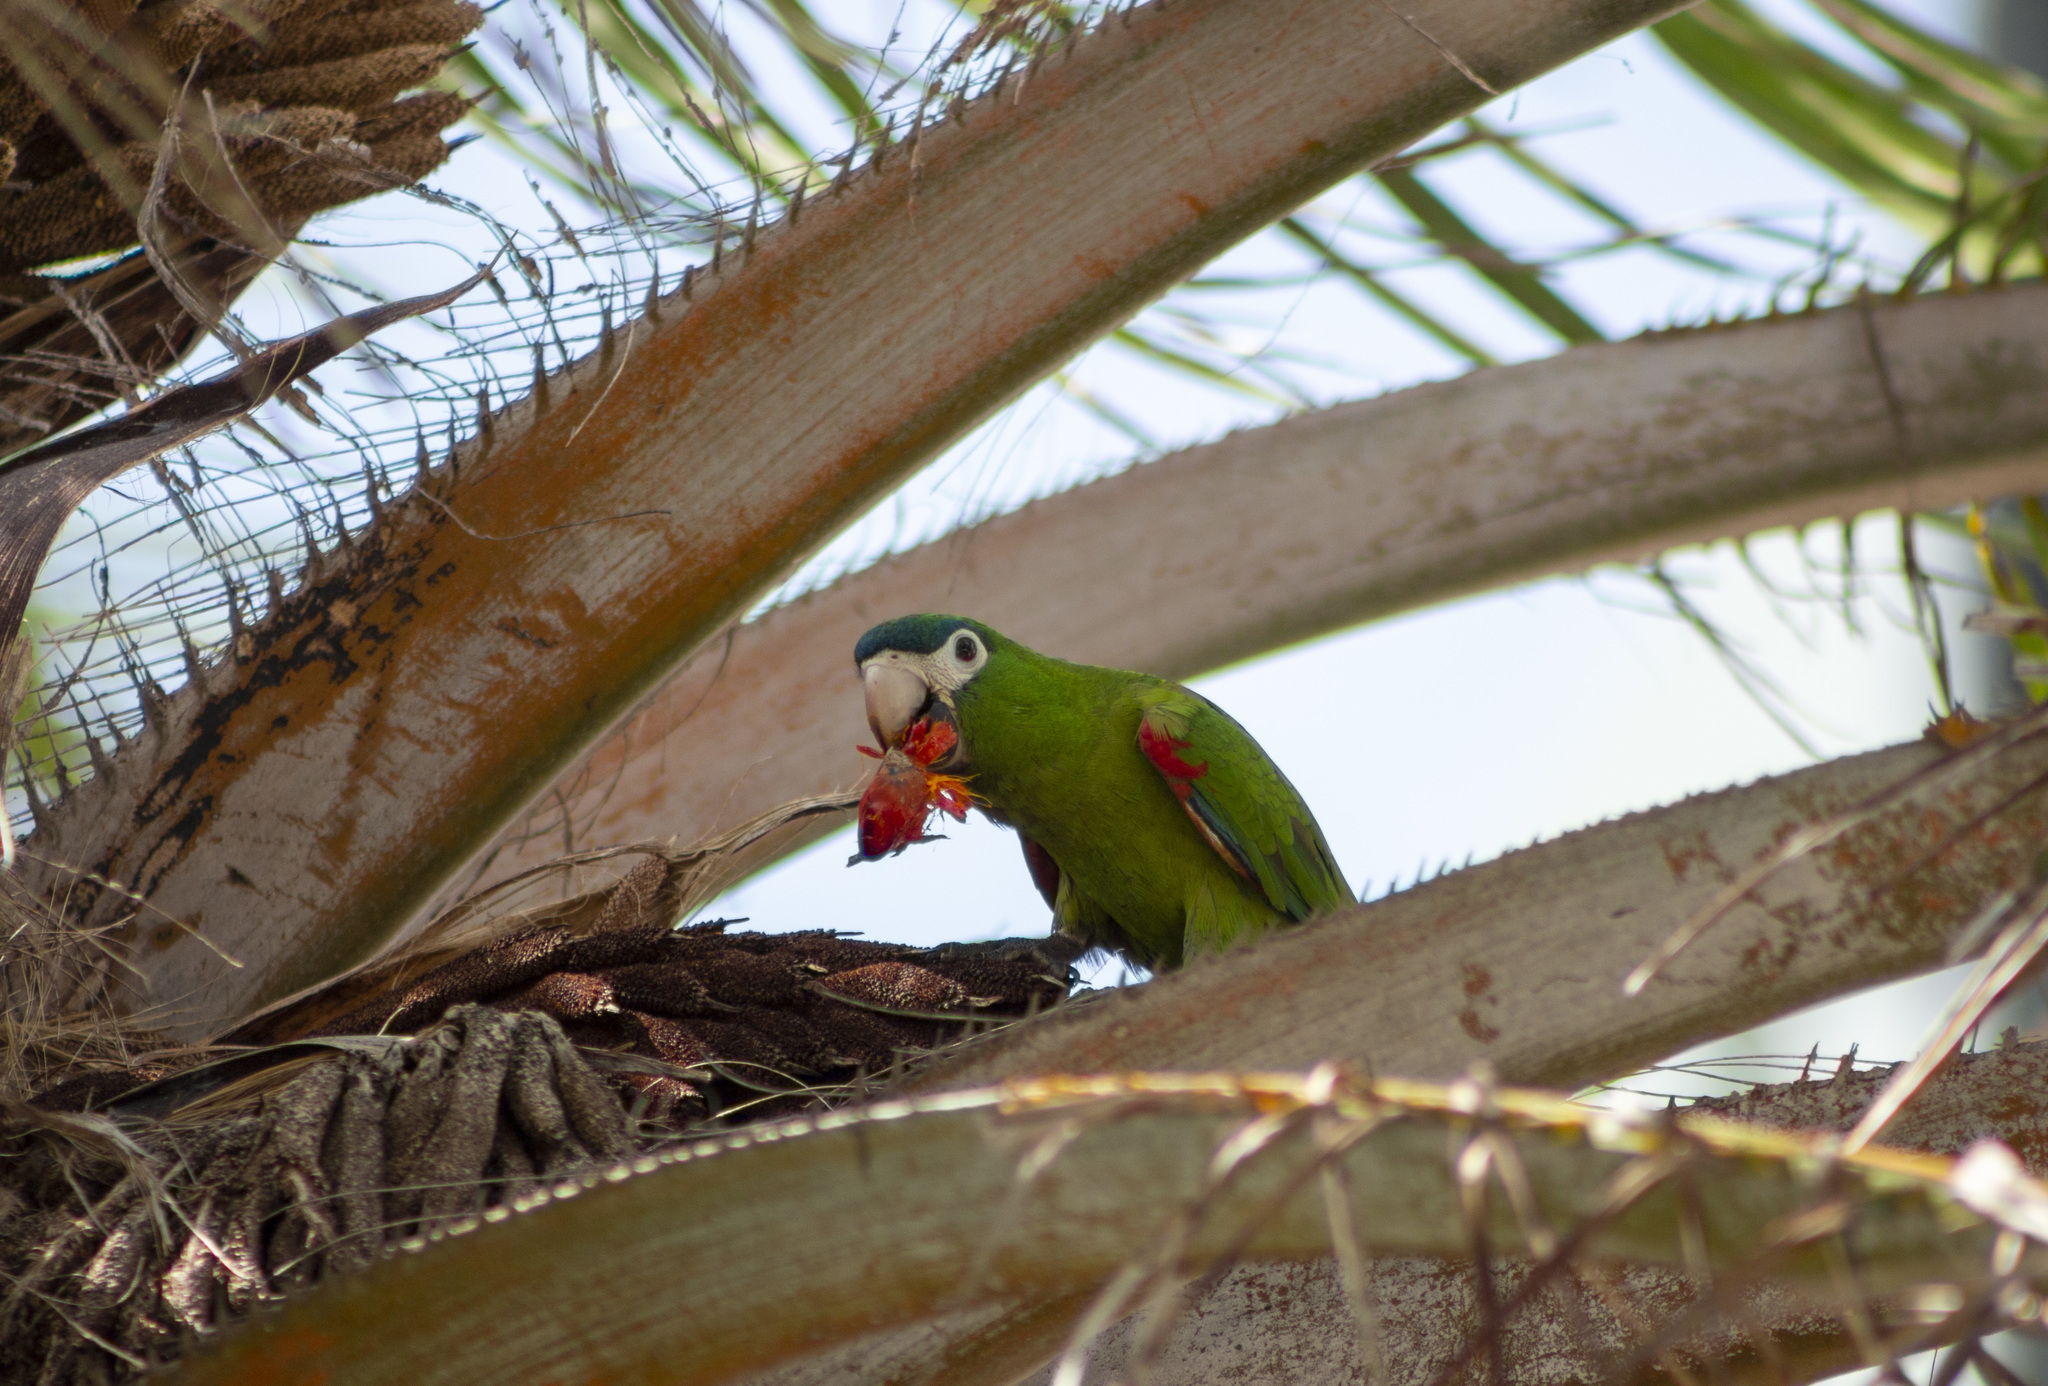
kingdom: Animalia
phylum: Chordata
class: Aves
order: Psittaciformes
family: Psittacidae
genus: Diopsittaca
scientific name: Diopsittaca nobilis
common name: Red-shouldered macaw
